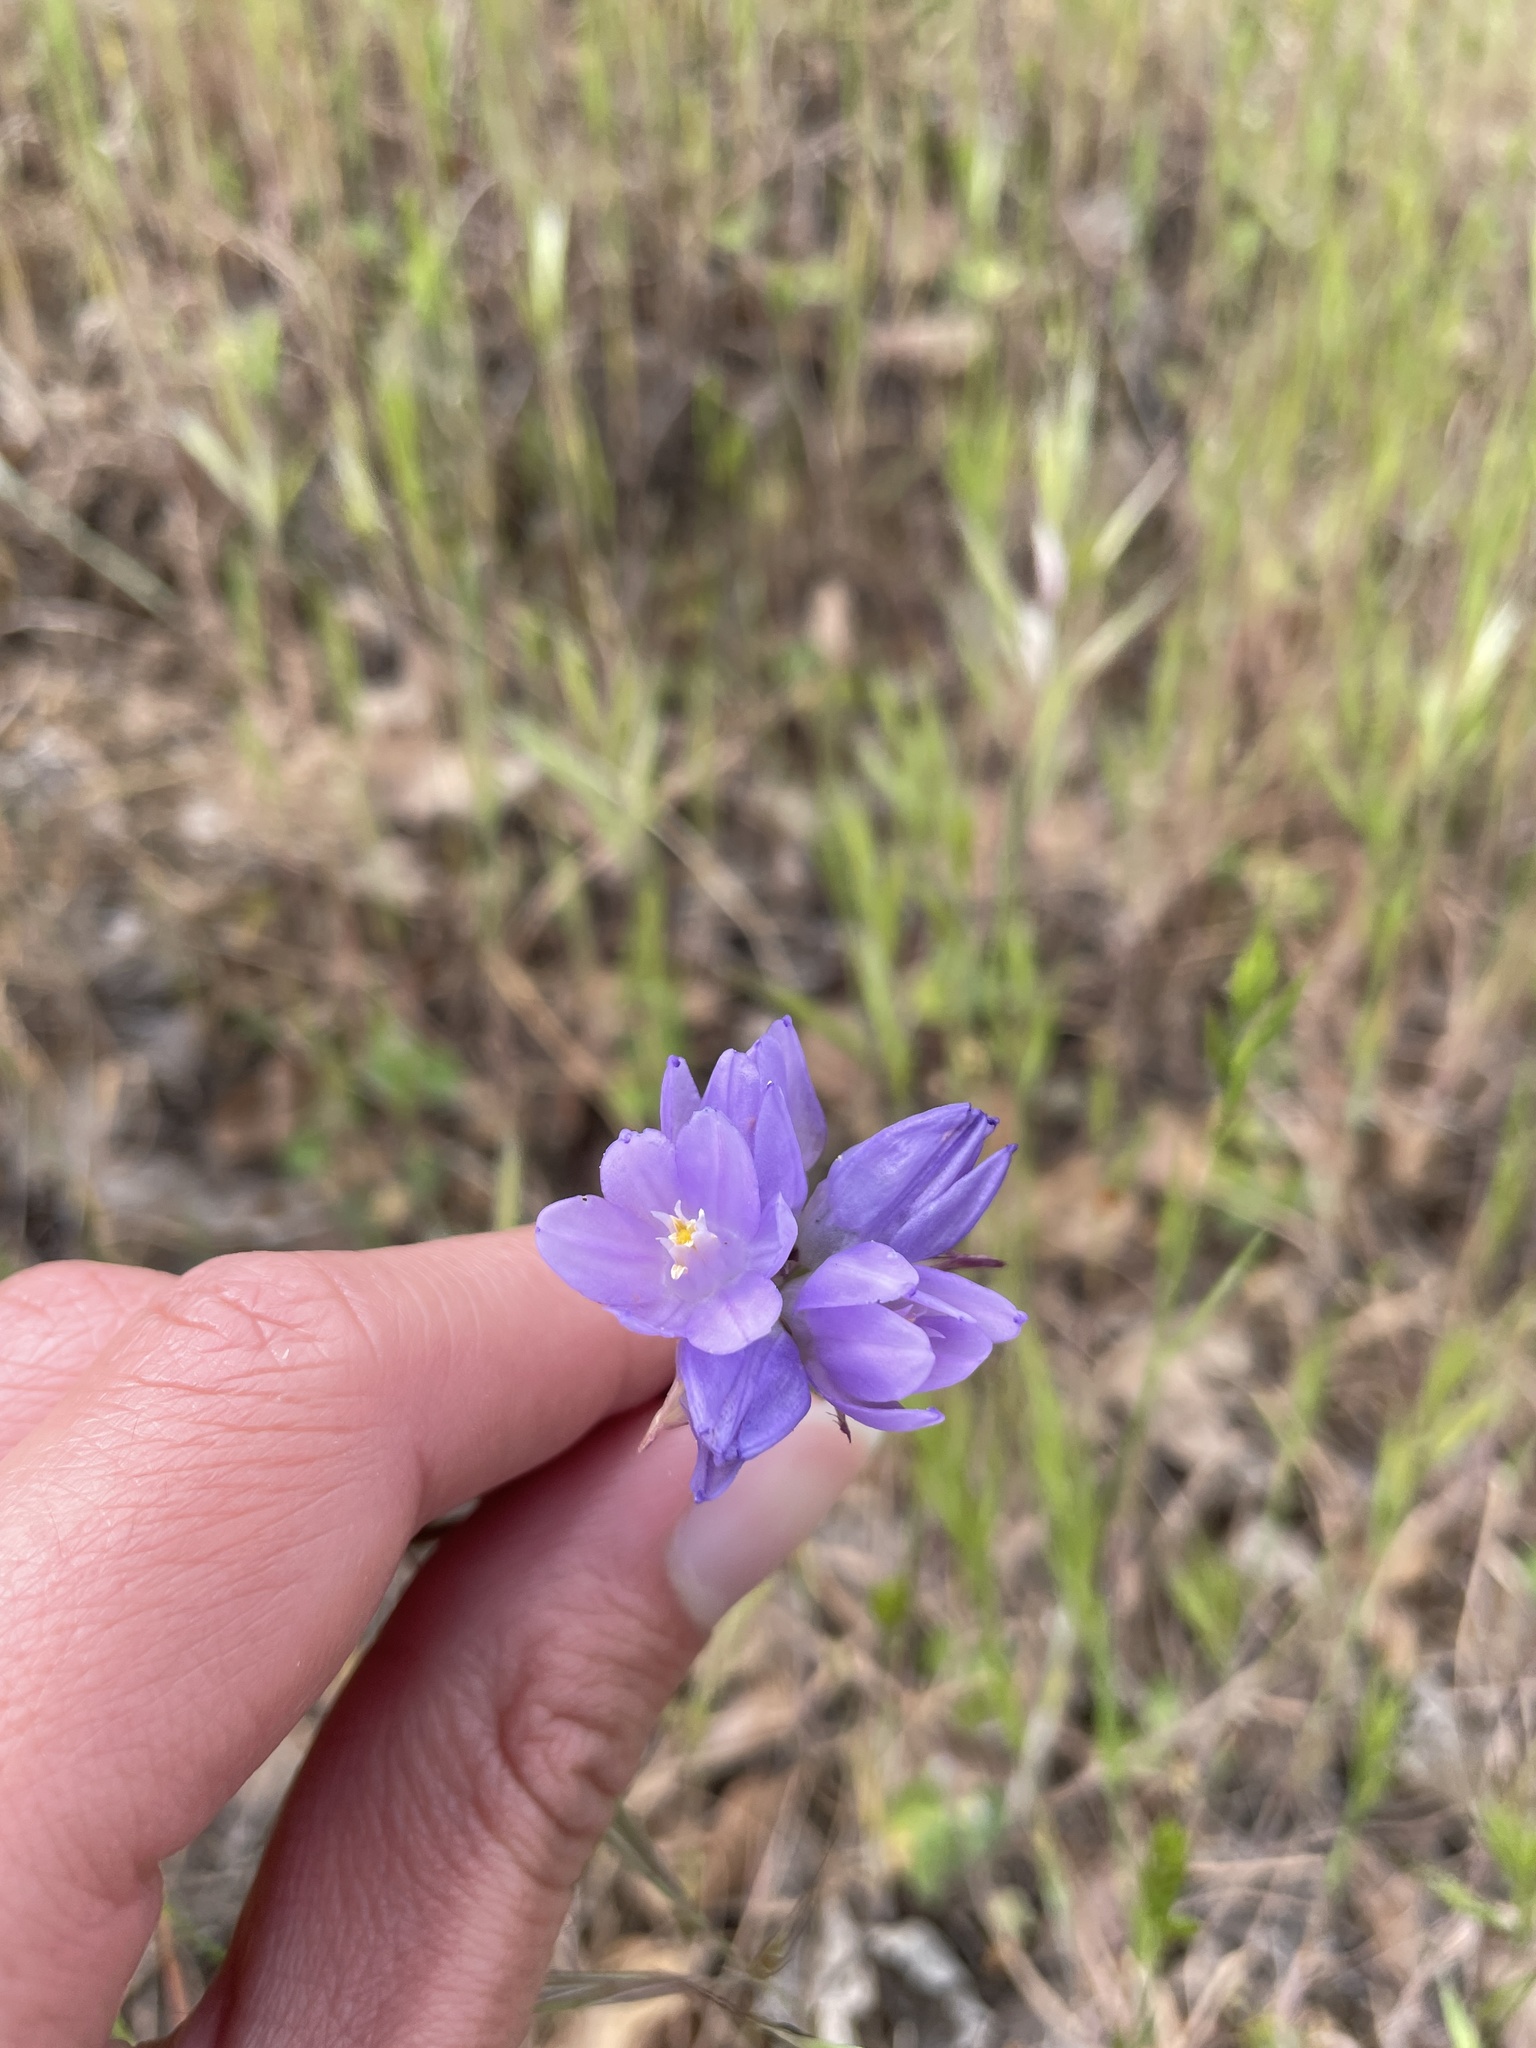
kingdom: Plantae
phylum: Tracheophyta
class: Liliopsida
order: Asparagales
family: Asparagaceae
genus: Dipterostemon
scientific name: Dipterostemon capitatus
